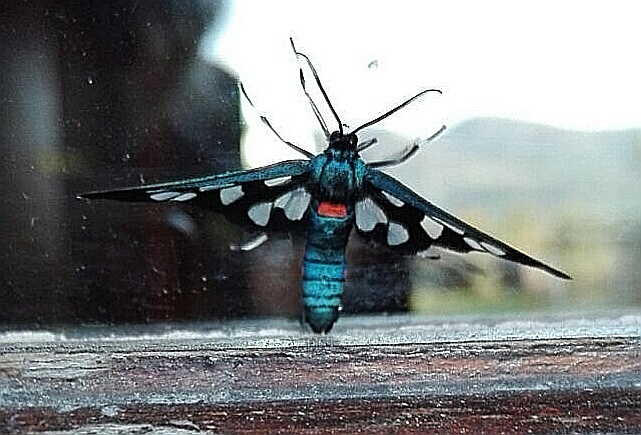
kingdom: Animalia
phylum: Arthropoda
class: Insecta
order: Lepidoptera
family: Erebidae
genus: Amata
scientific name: Amata kuhlweini
